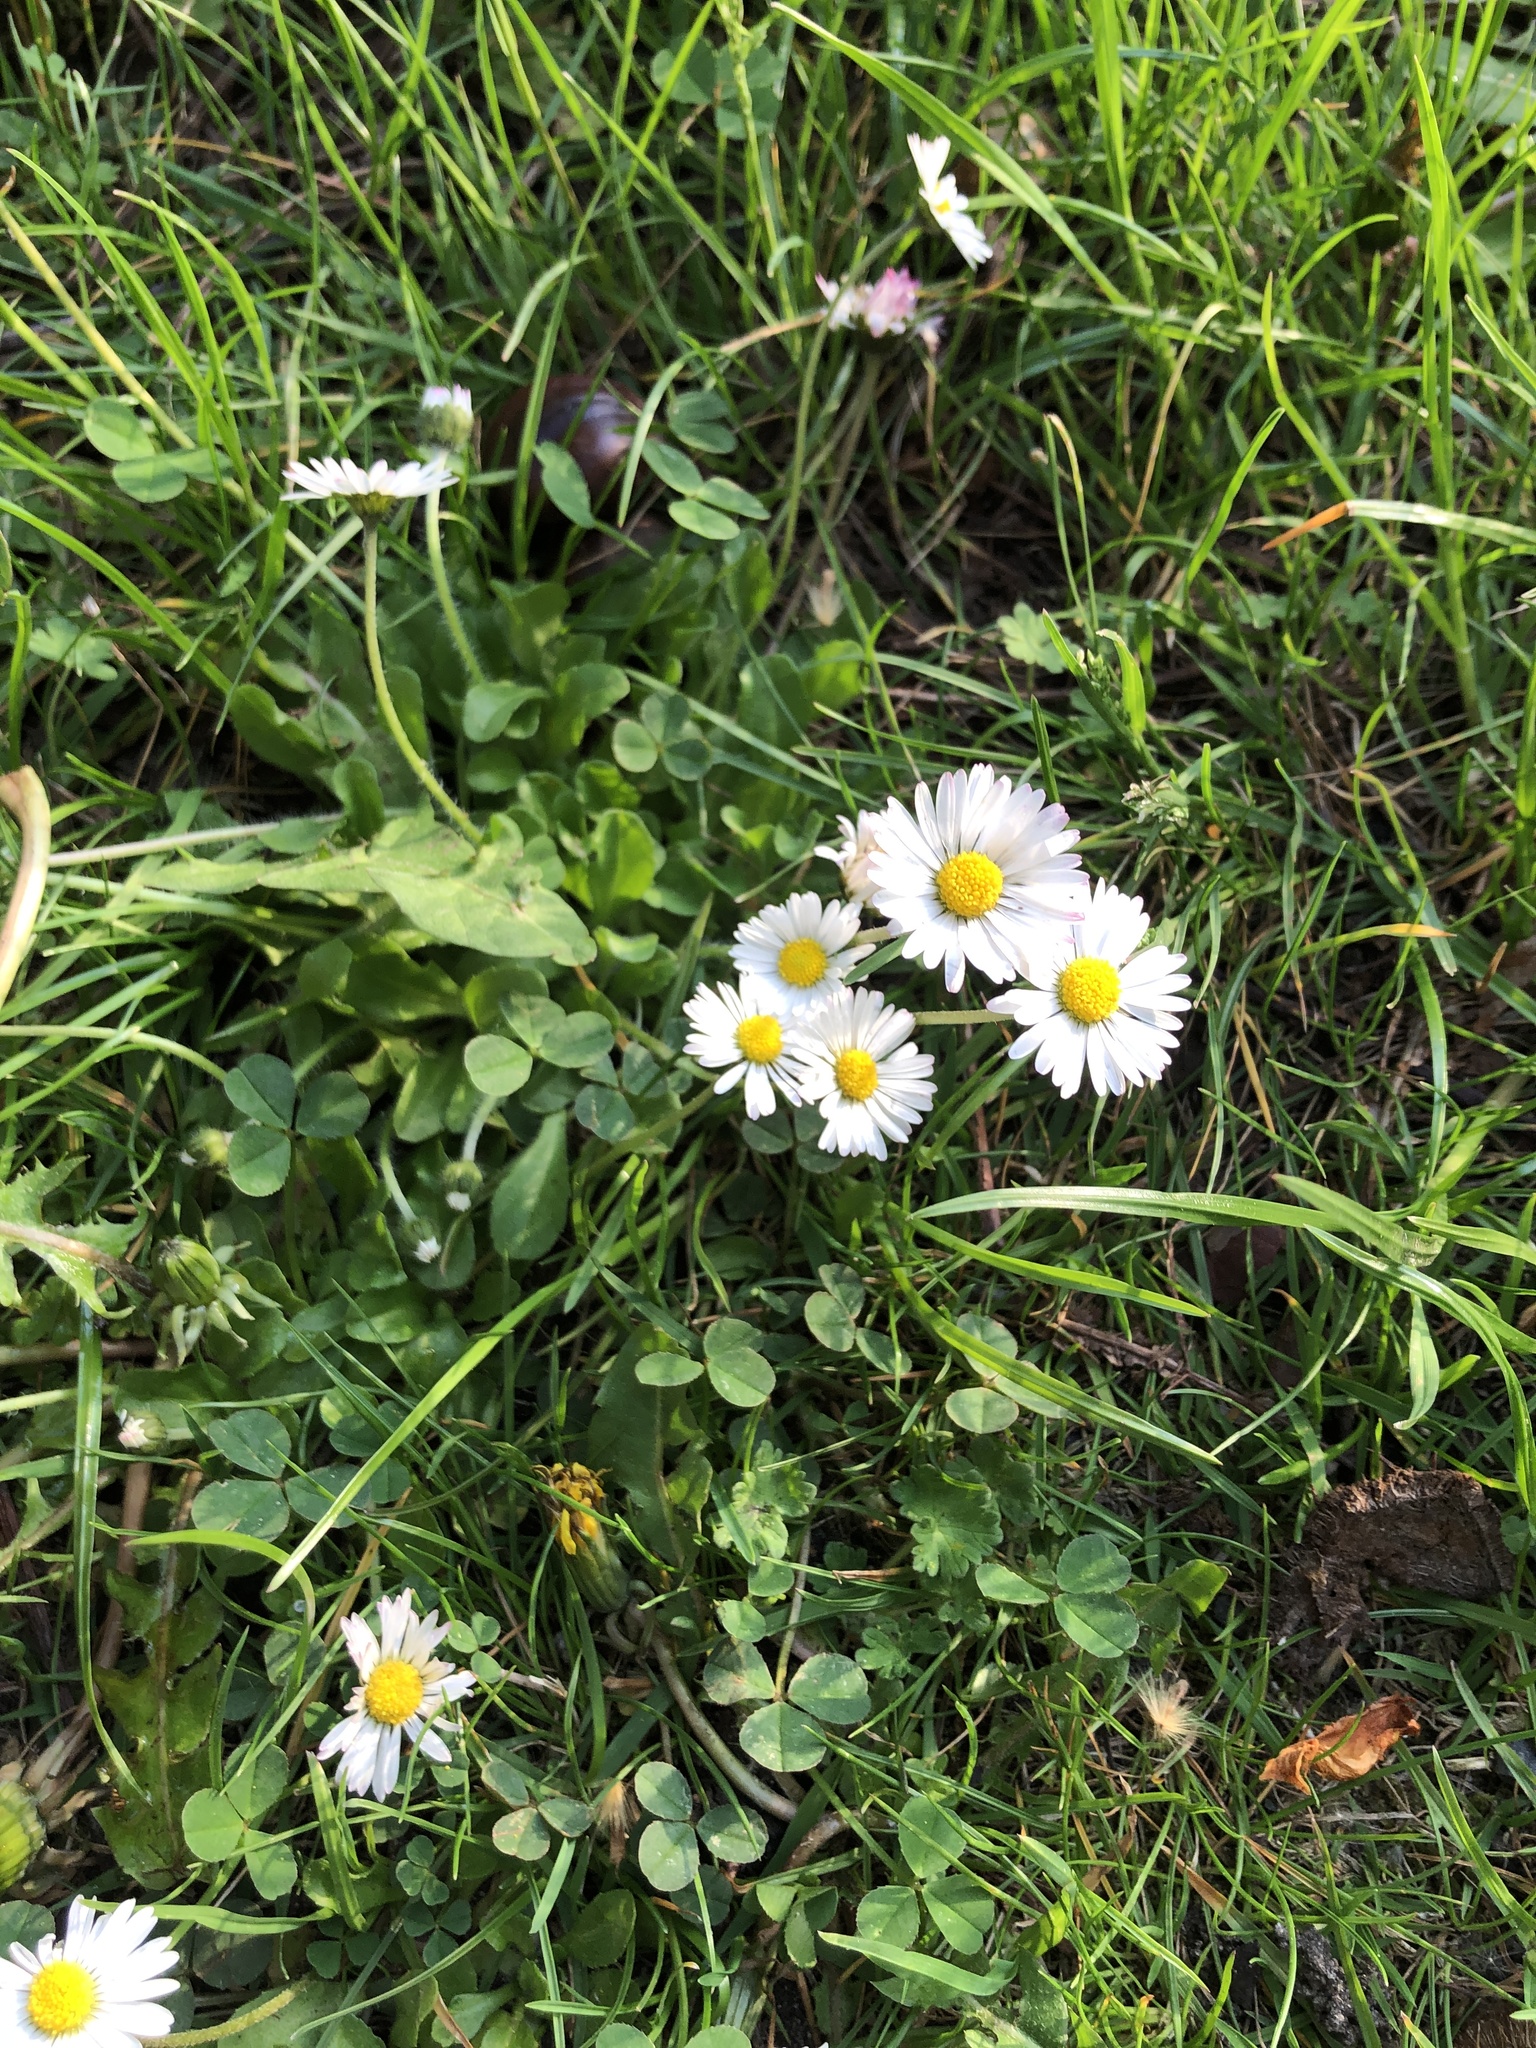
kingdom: Plantae
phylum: Tracheophyta
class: Magnoliopsida
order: Asterales
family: Asteraceae
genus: Bellis
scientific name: Bellis perennis
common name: Lawndaisy
